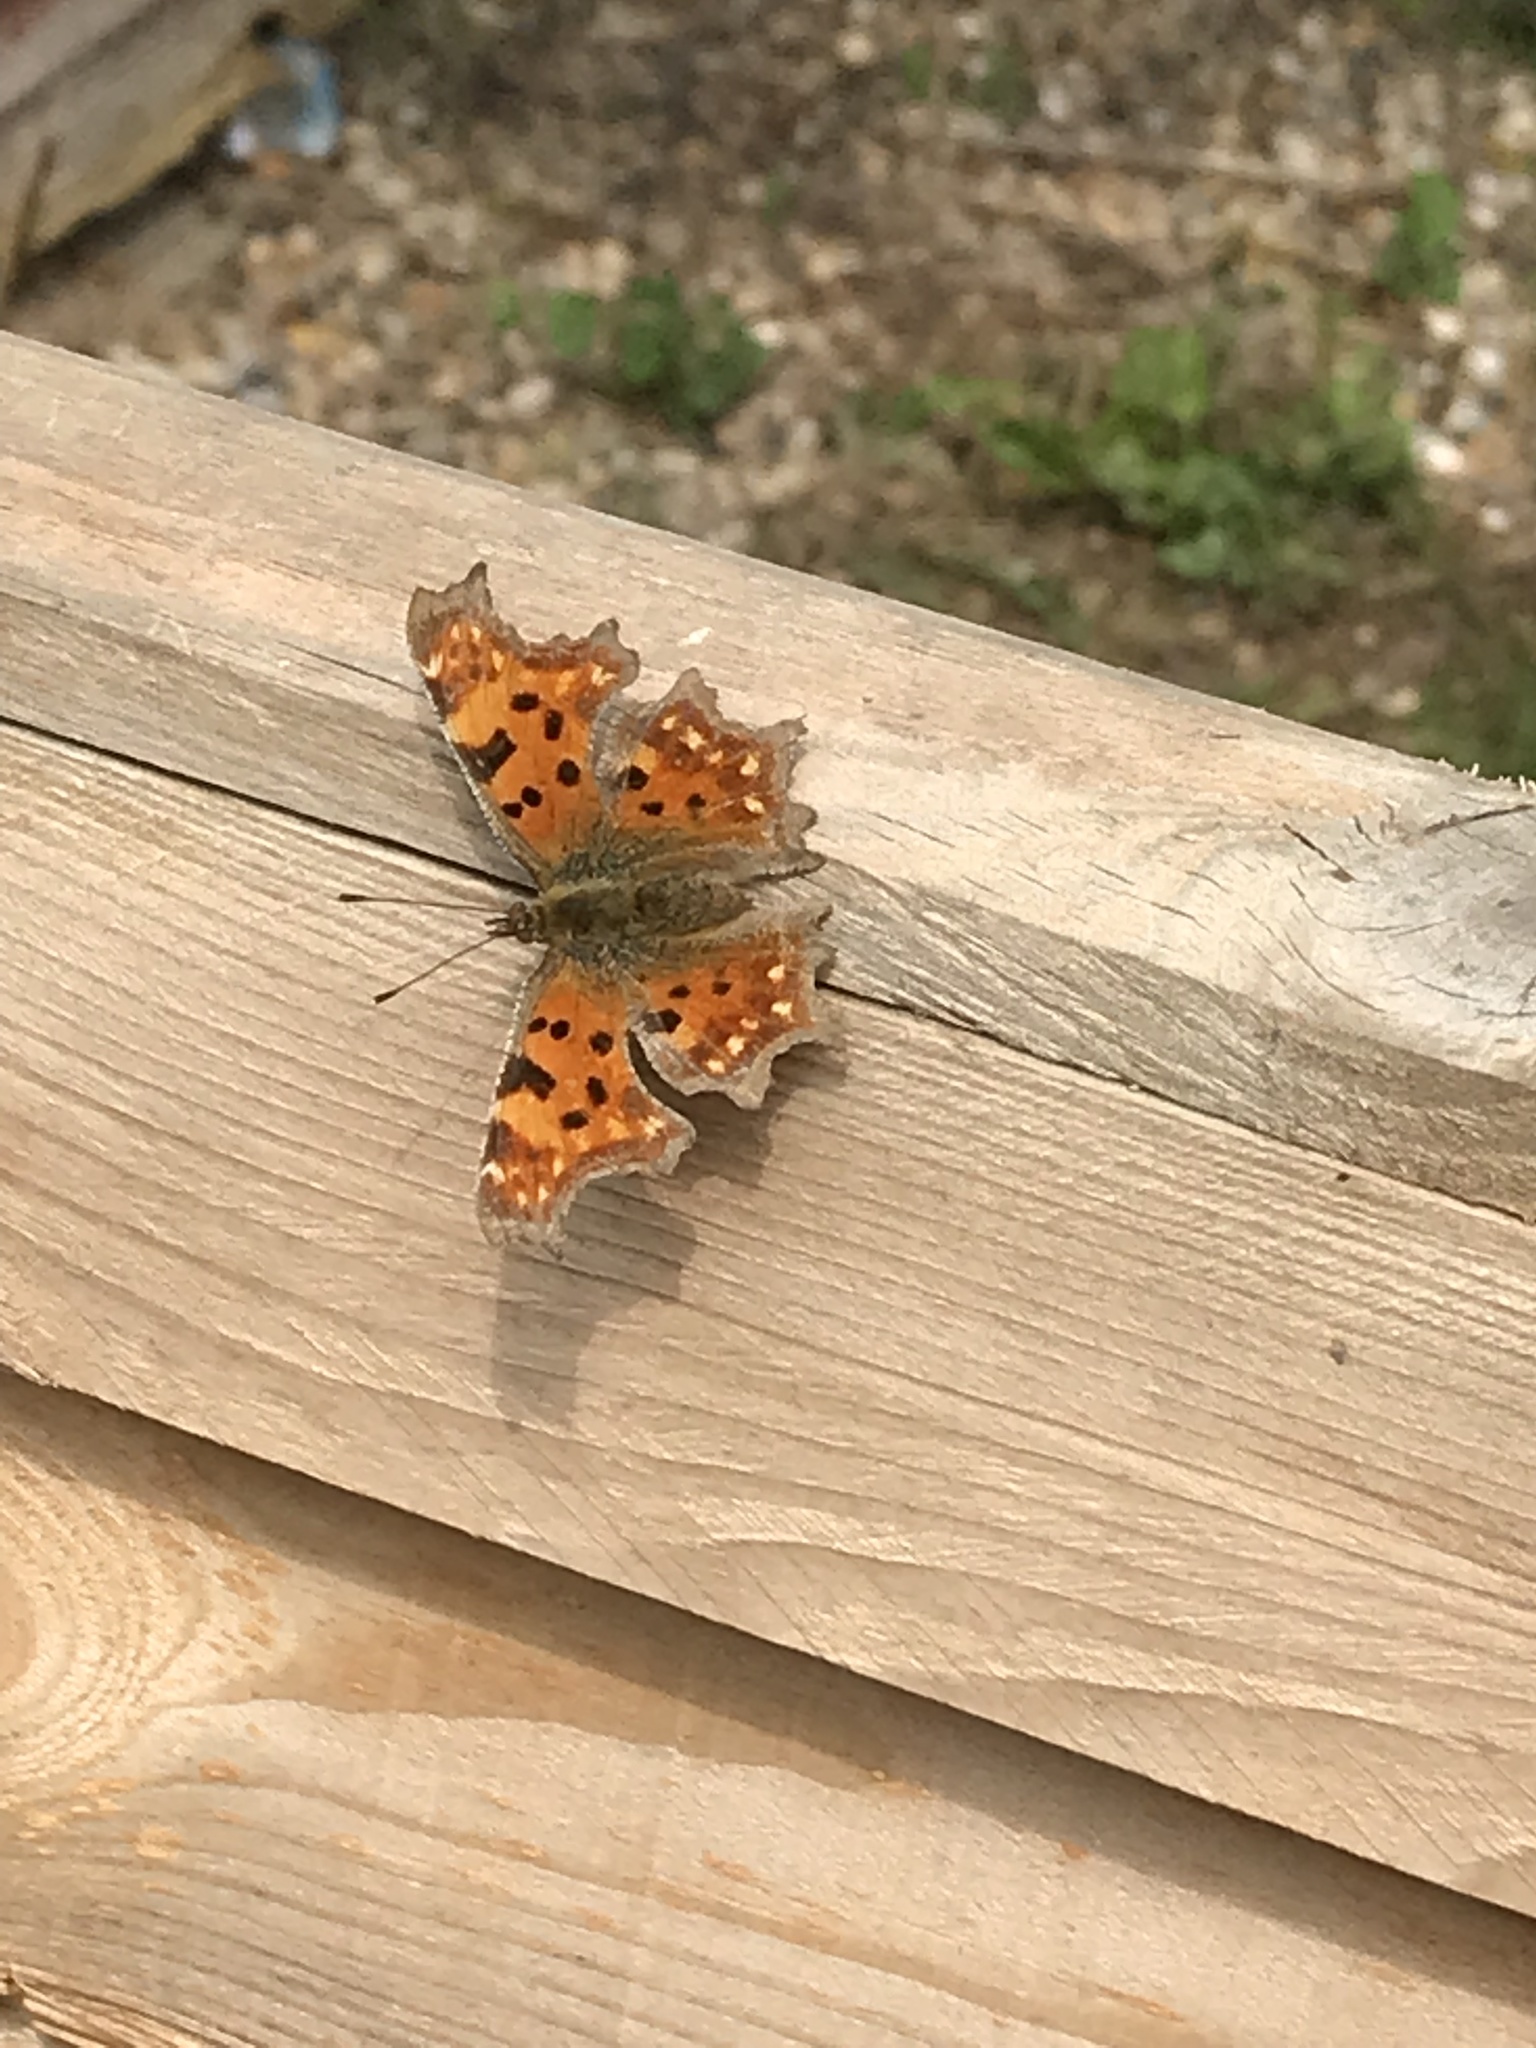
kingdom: Animalia
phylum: Arthropoda
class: Insecta
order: Lepidoptera
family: Nymphalidae
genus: Polygonia
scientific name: Polygonia c-album
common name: Comma
